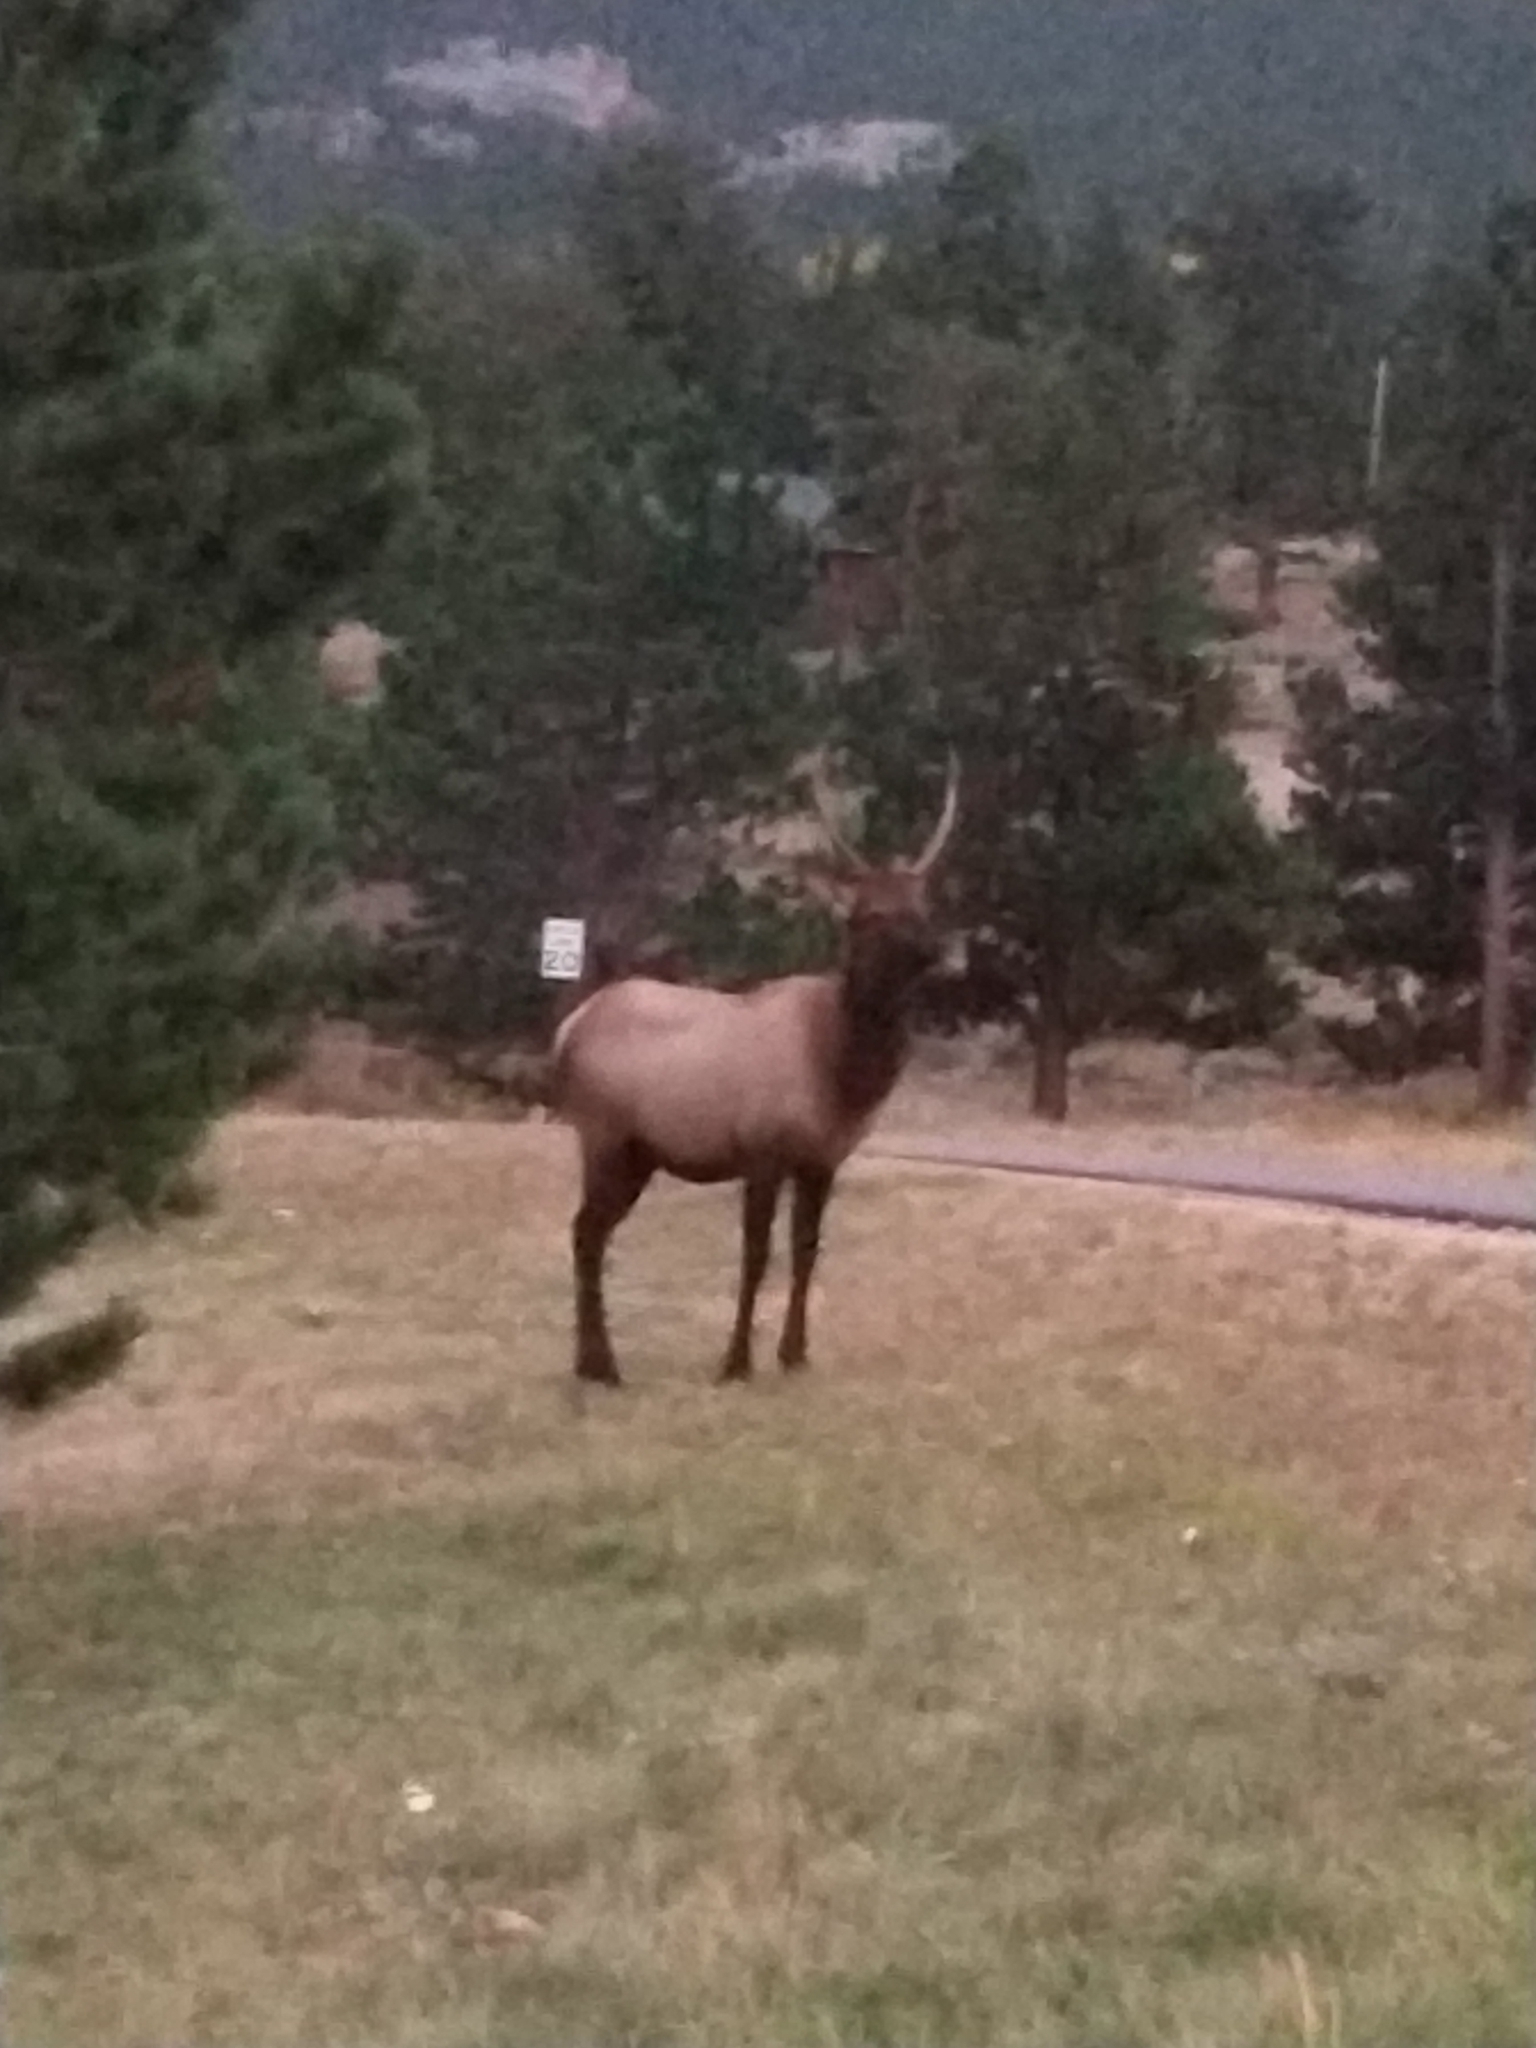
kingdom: Animalia
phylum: Chordata
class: Mammalia
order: Artiodactyla
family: Cervidae
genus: Cervus
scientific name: Cervus elaphus
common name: Red deer
